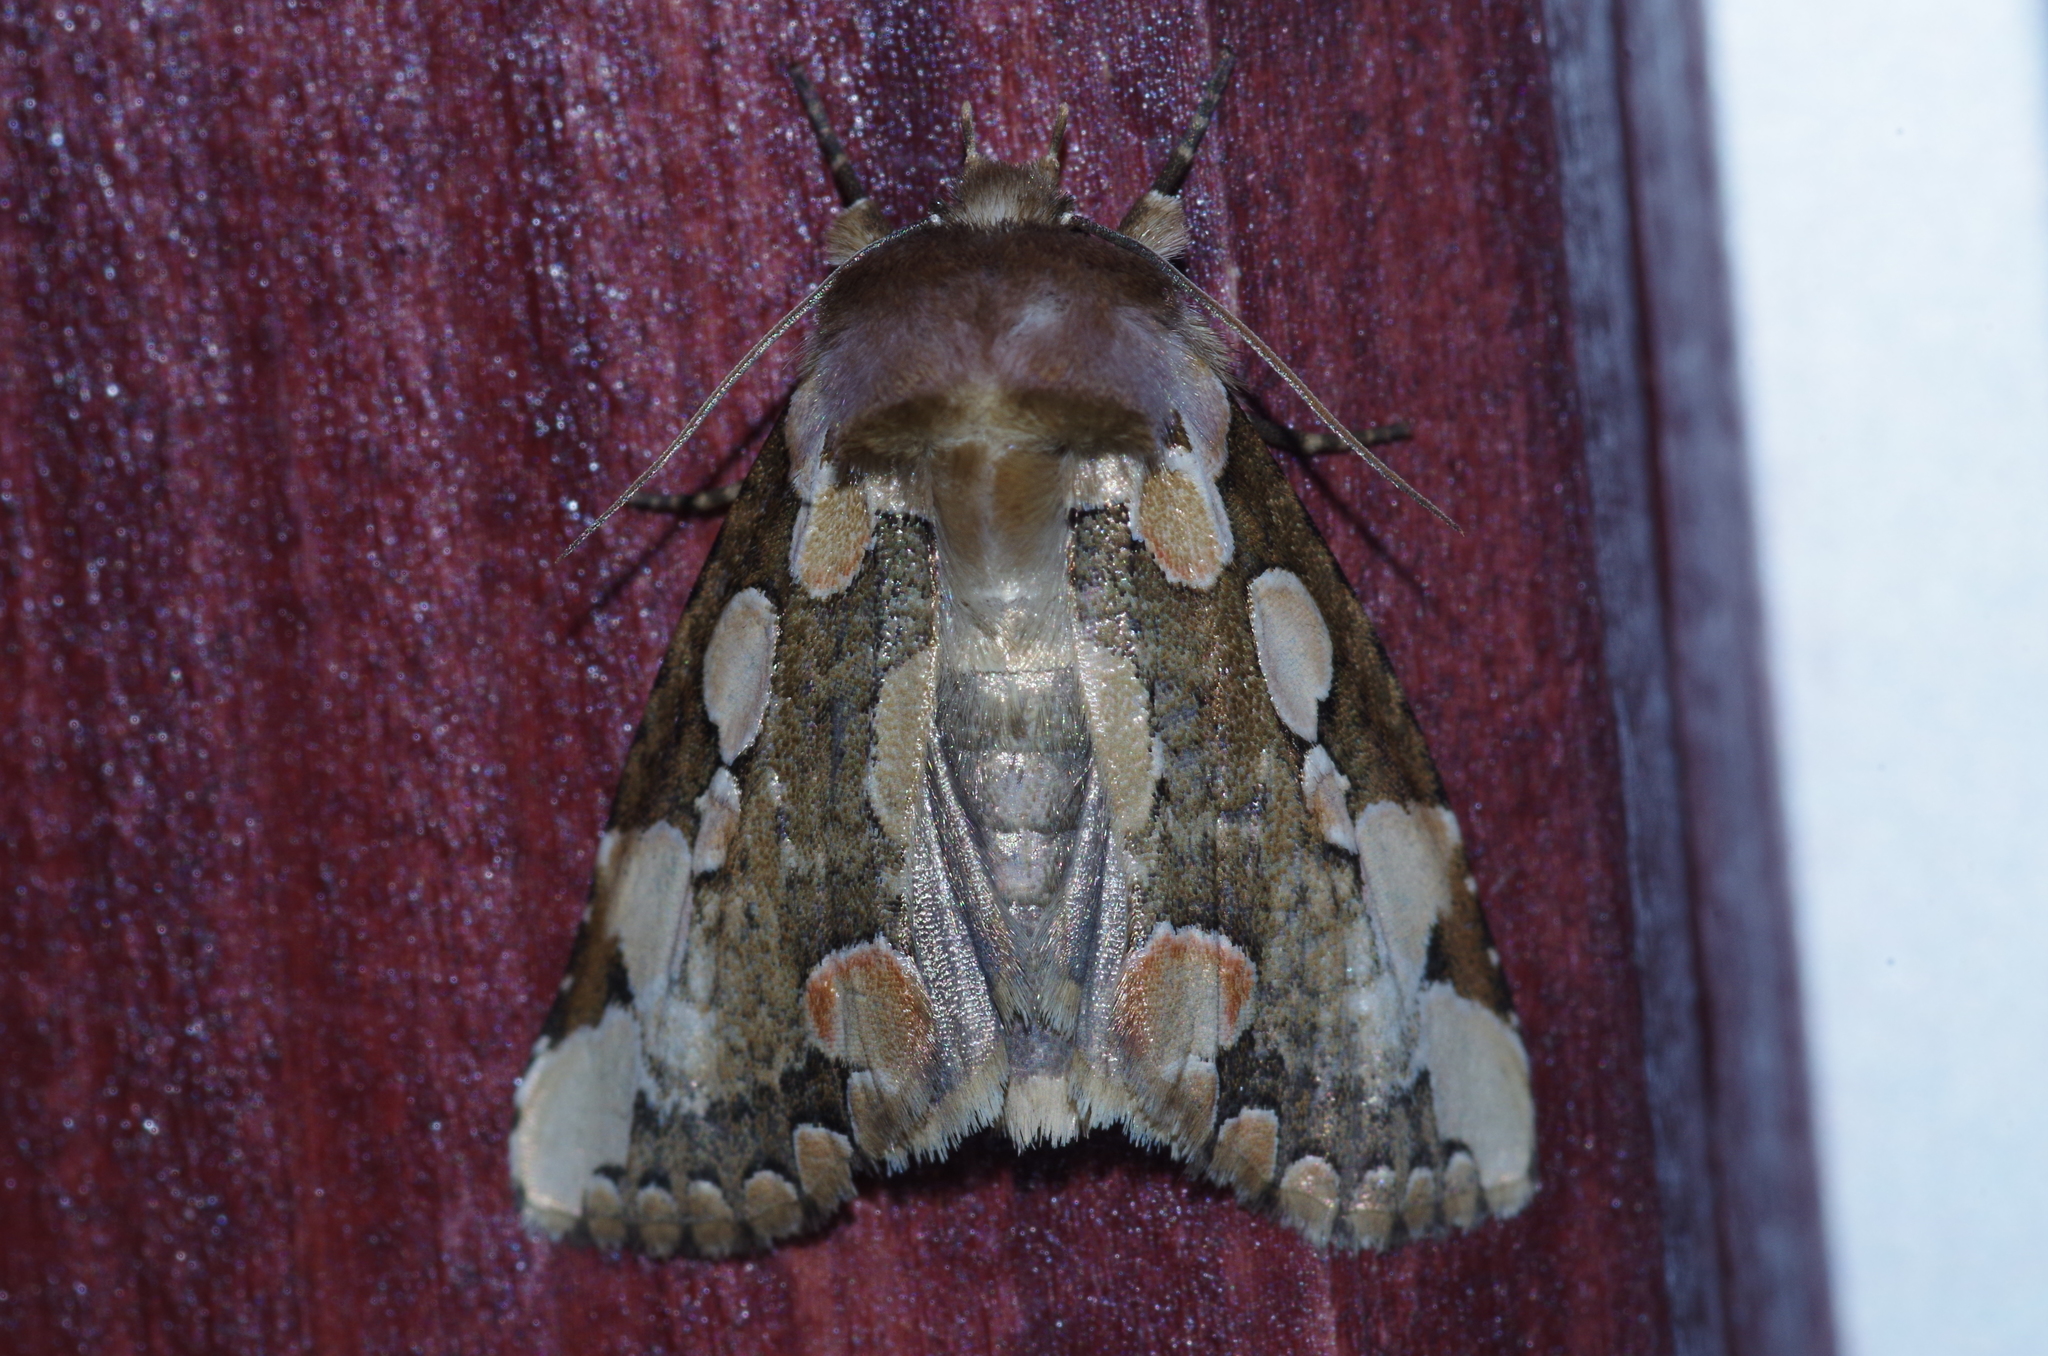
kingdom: Animalia
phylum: Arthropoda
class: Insecta
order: Lepidoptera
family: Drepanidae
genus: Horithyatira
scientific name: Horithyatira decorata
